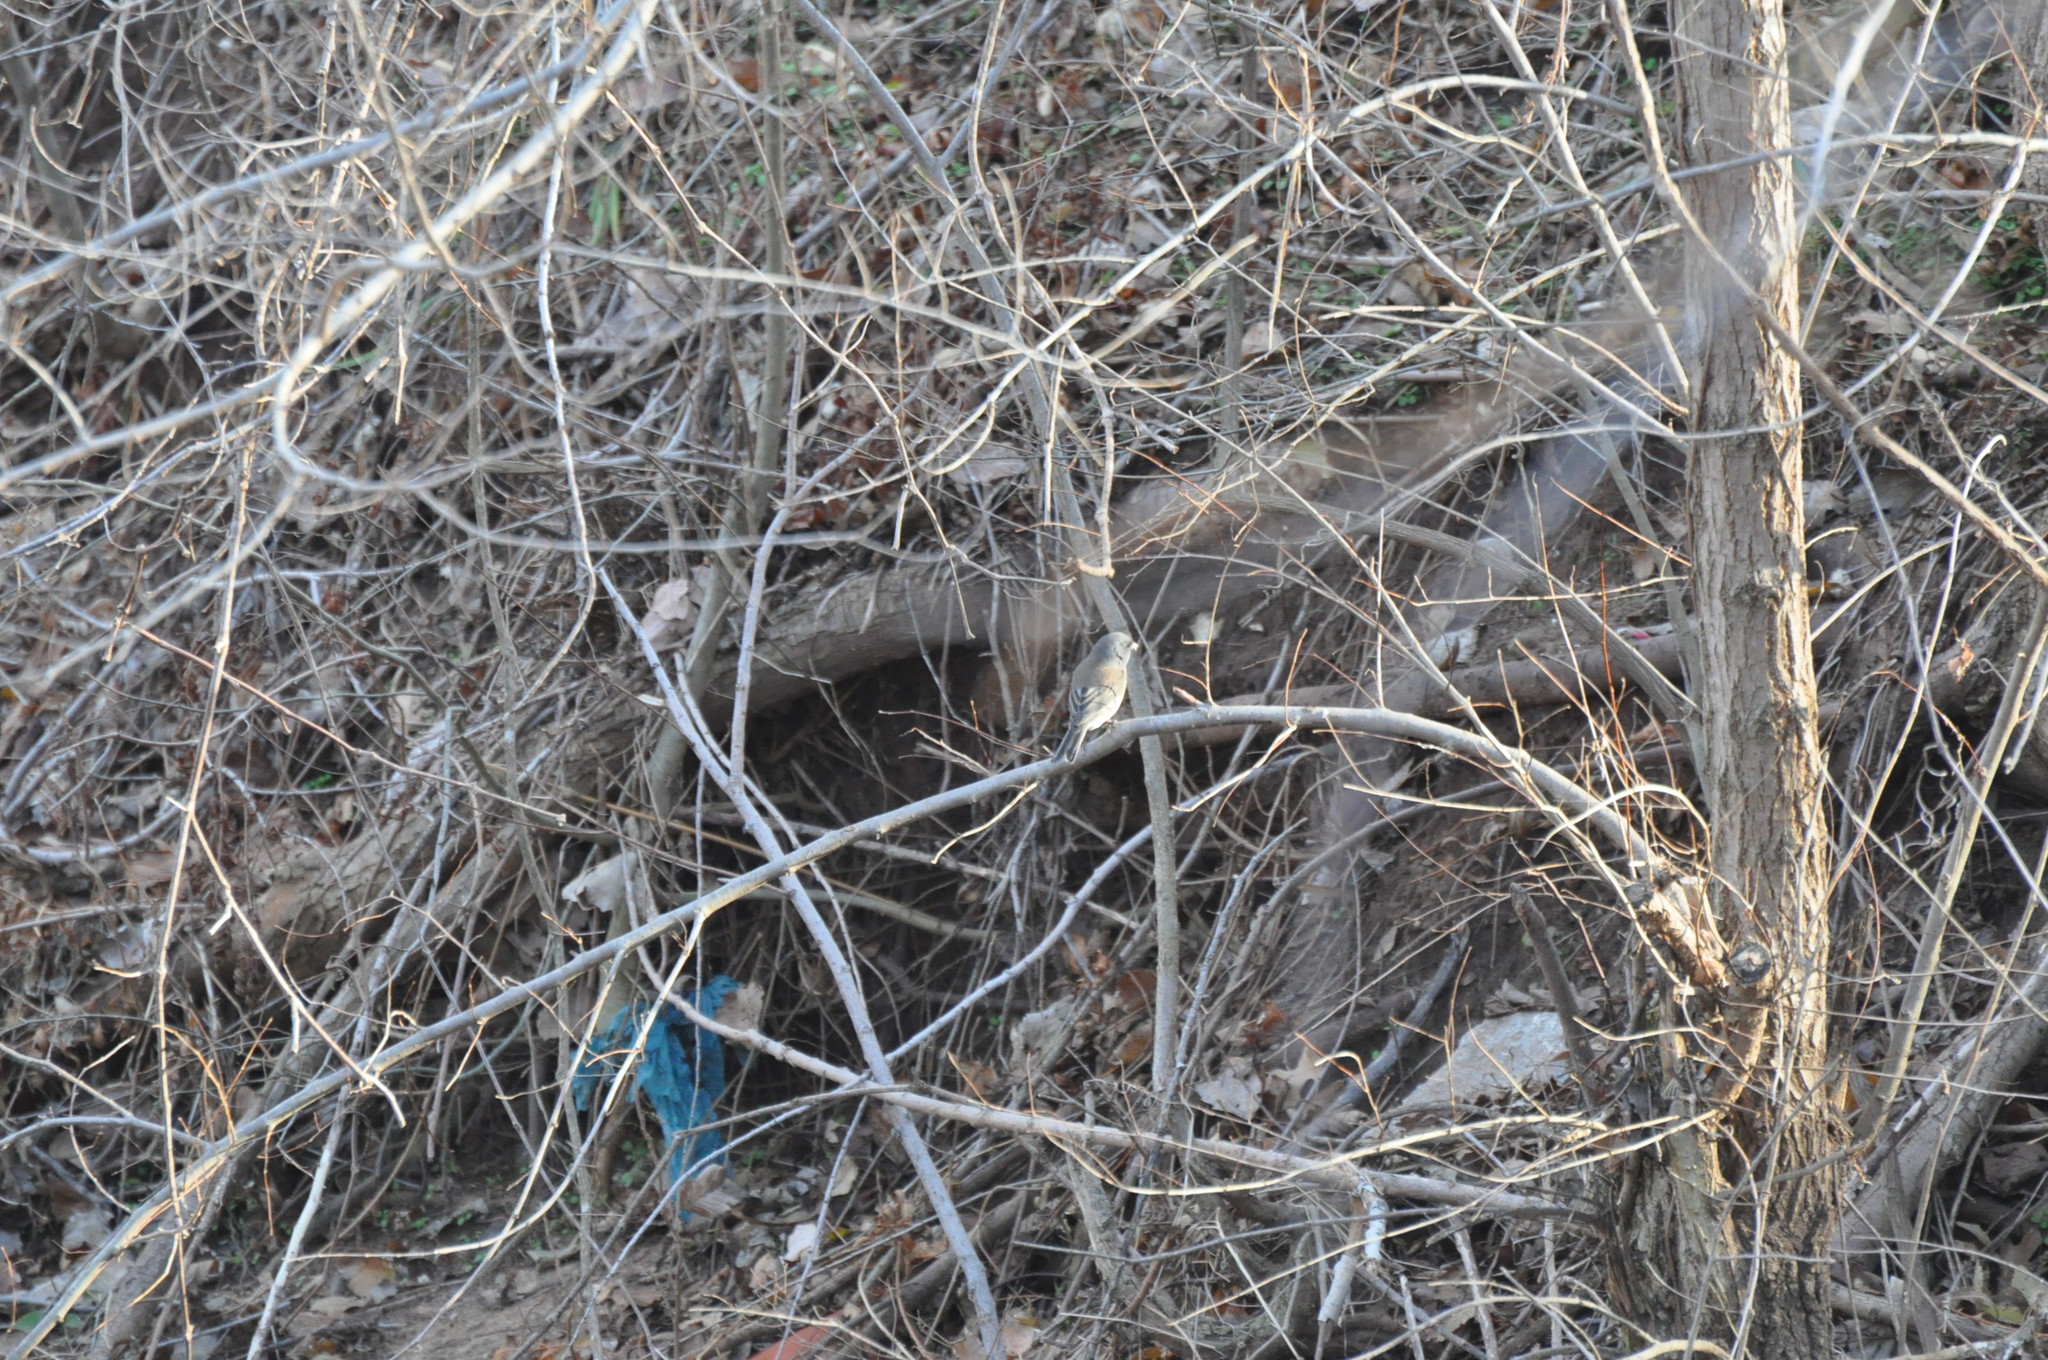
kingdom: Animalia
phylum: Chordata
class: Aves
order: Passeriformes
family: Passerellidae
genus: Junco
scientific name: Junco hyemalis
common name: Dark-eyed junco
